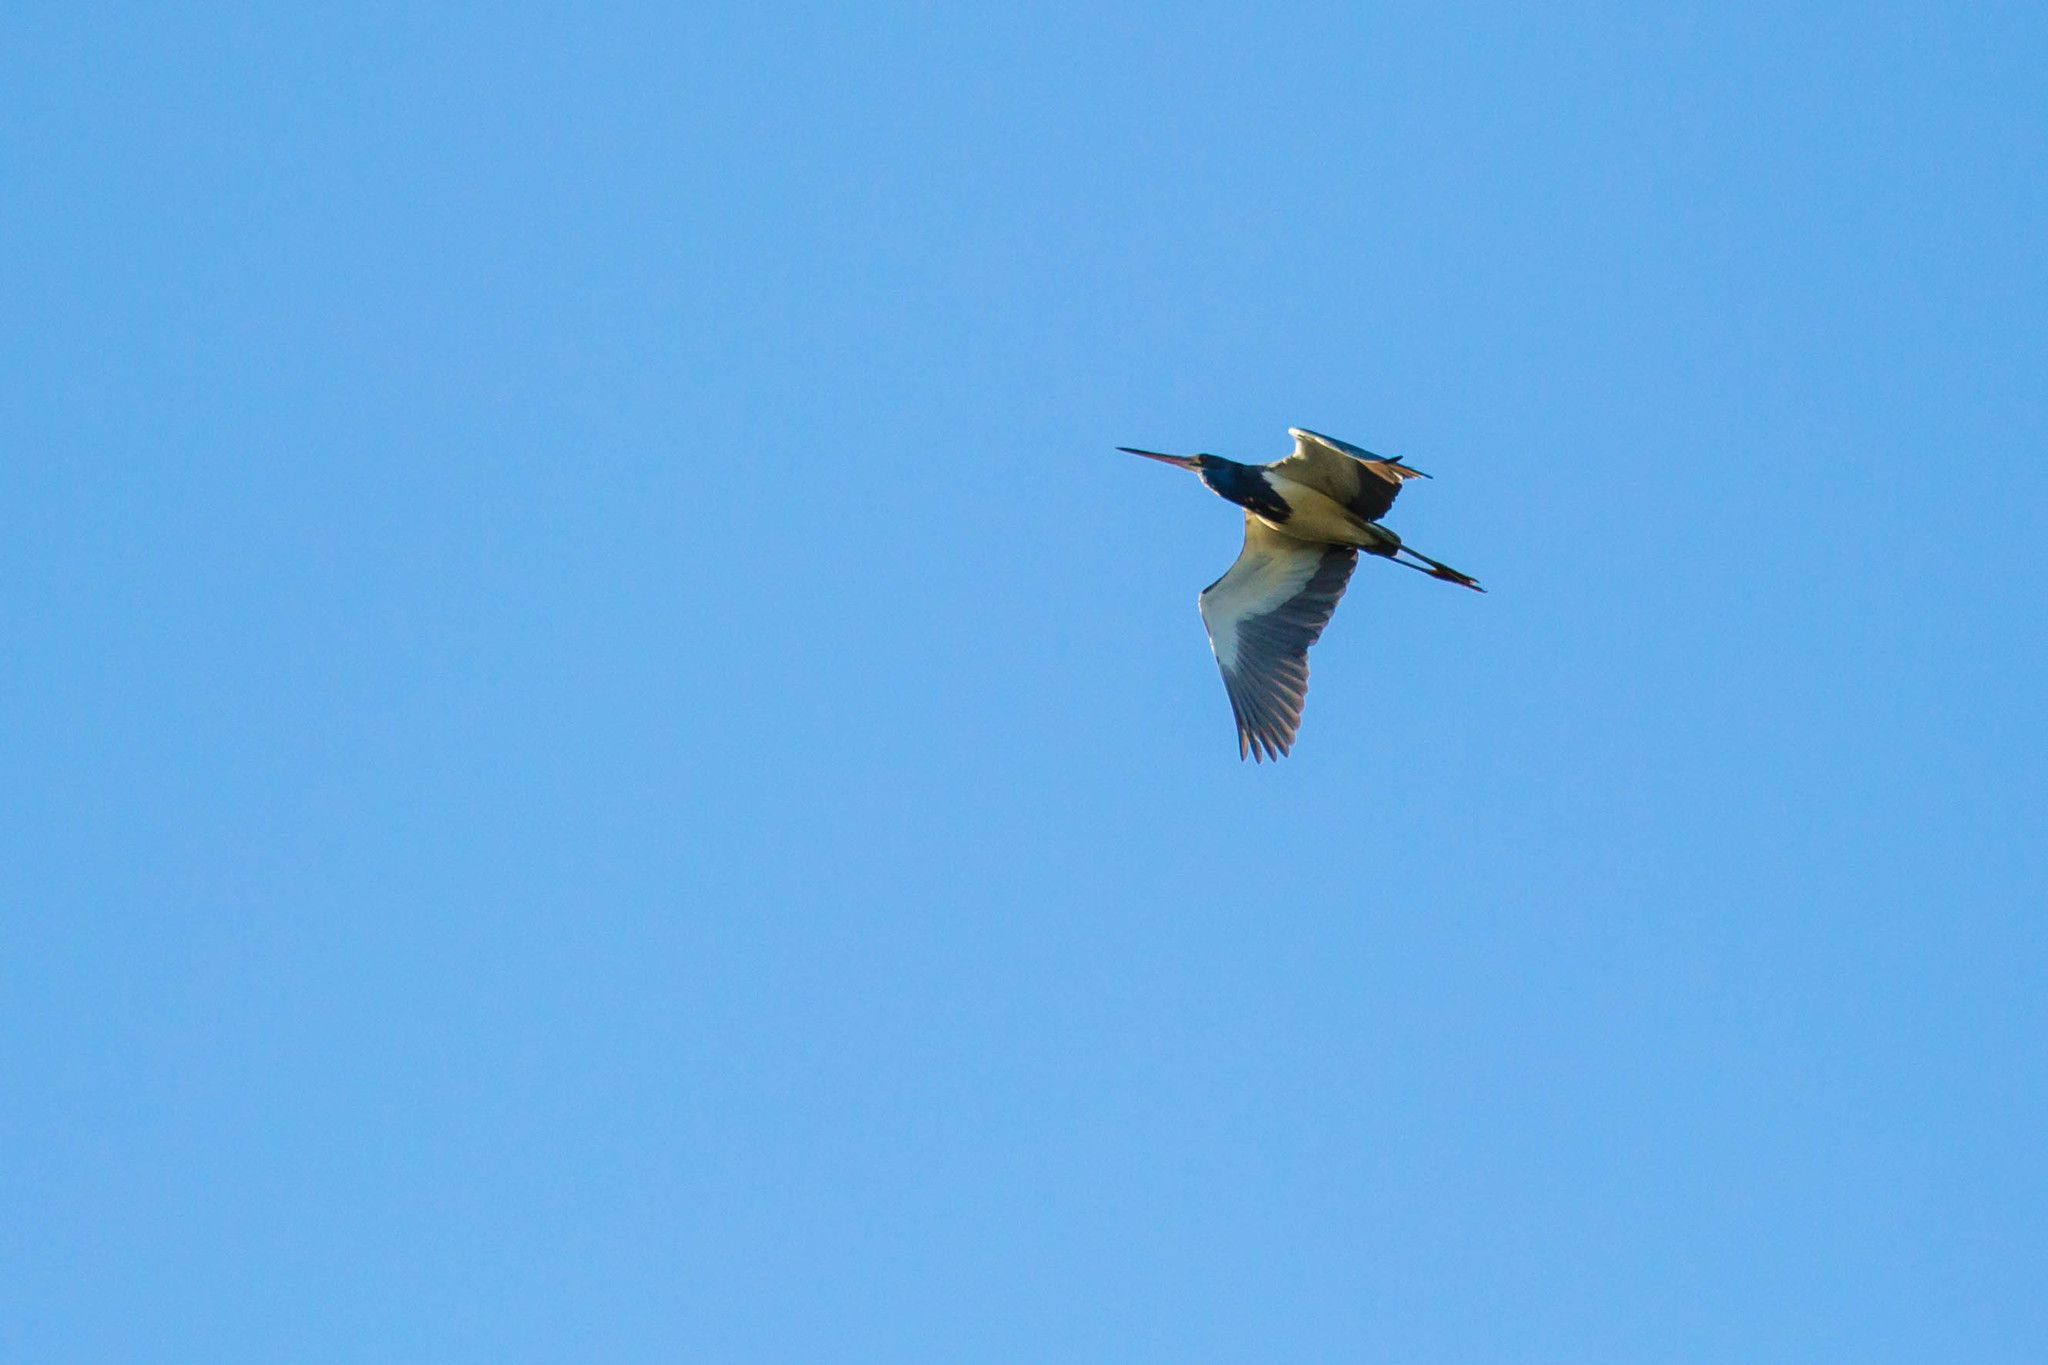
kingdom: Animalia
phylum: Chordata
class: Aves
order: Pelecaniformes
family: Ardeidae
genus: Egretta
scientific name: Egretta tricolor
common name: Tricolored heron
